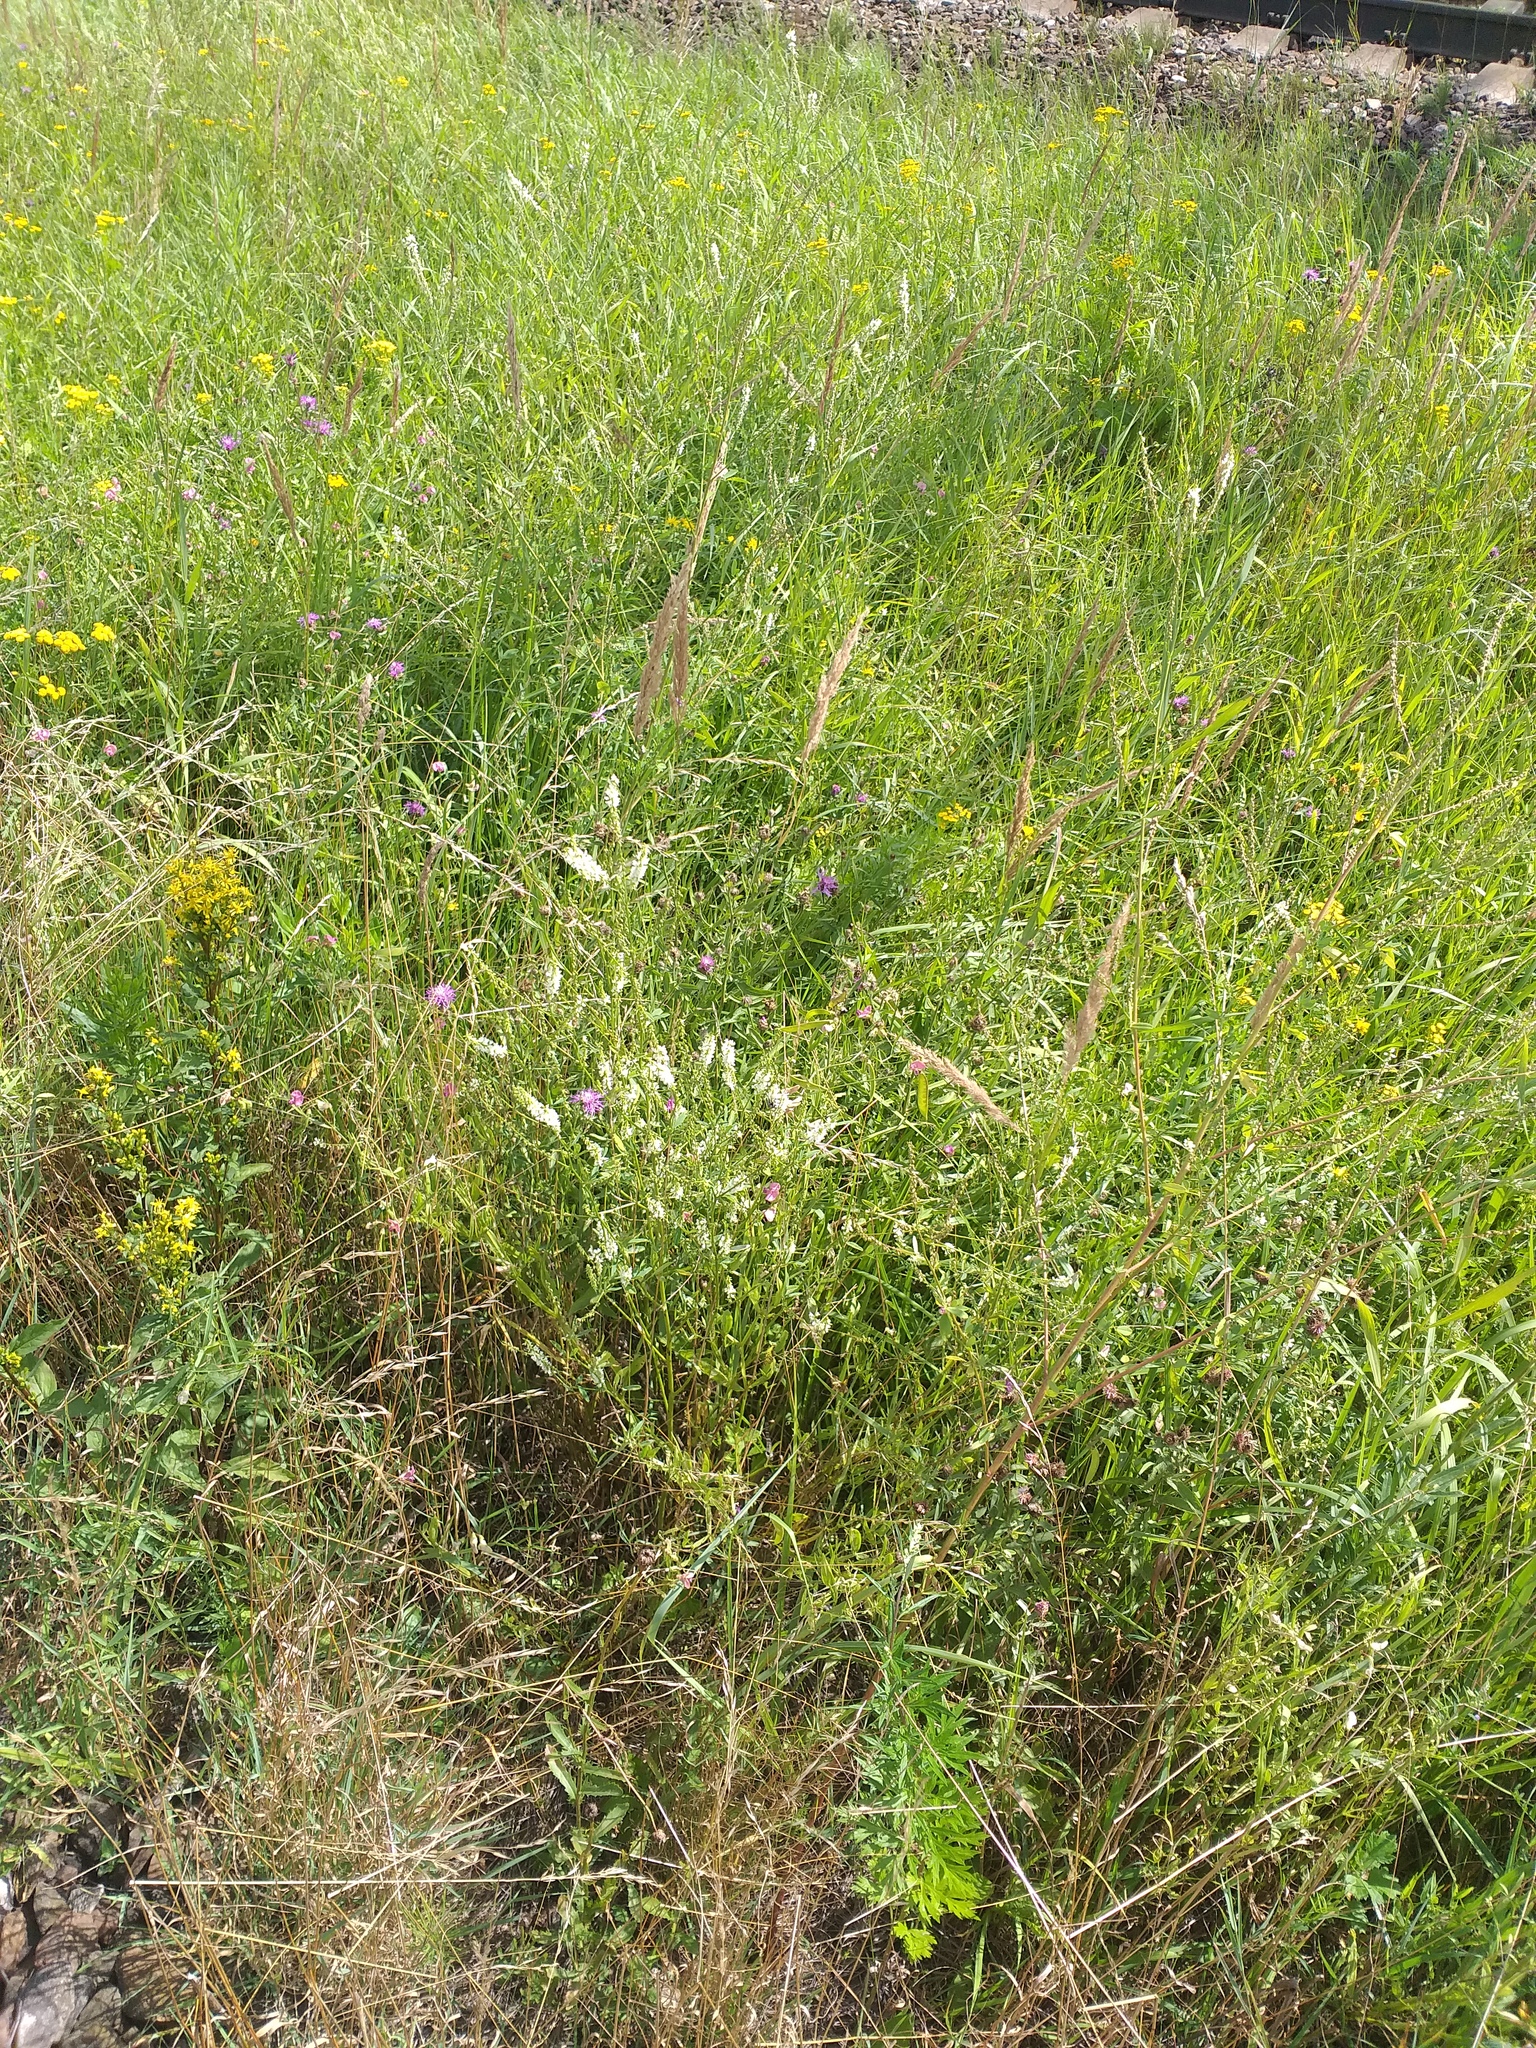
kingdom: Plantae
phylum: Tracheophyta
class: Magnoliopsida
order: Fabales
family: Fabaceae
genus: Melilotus
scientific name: Melilotus albus
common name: White melilot
